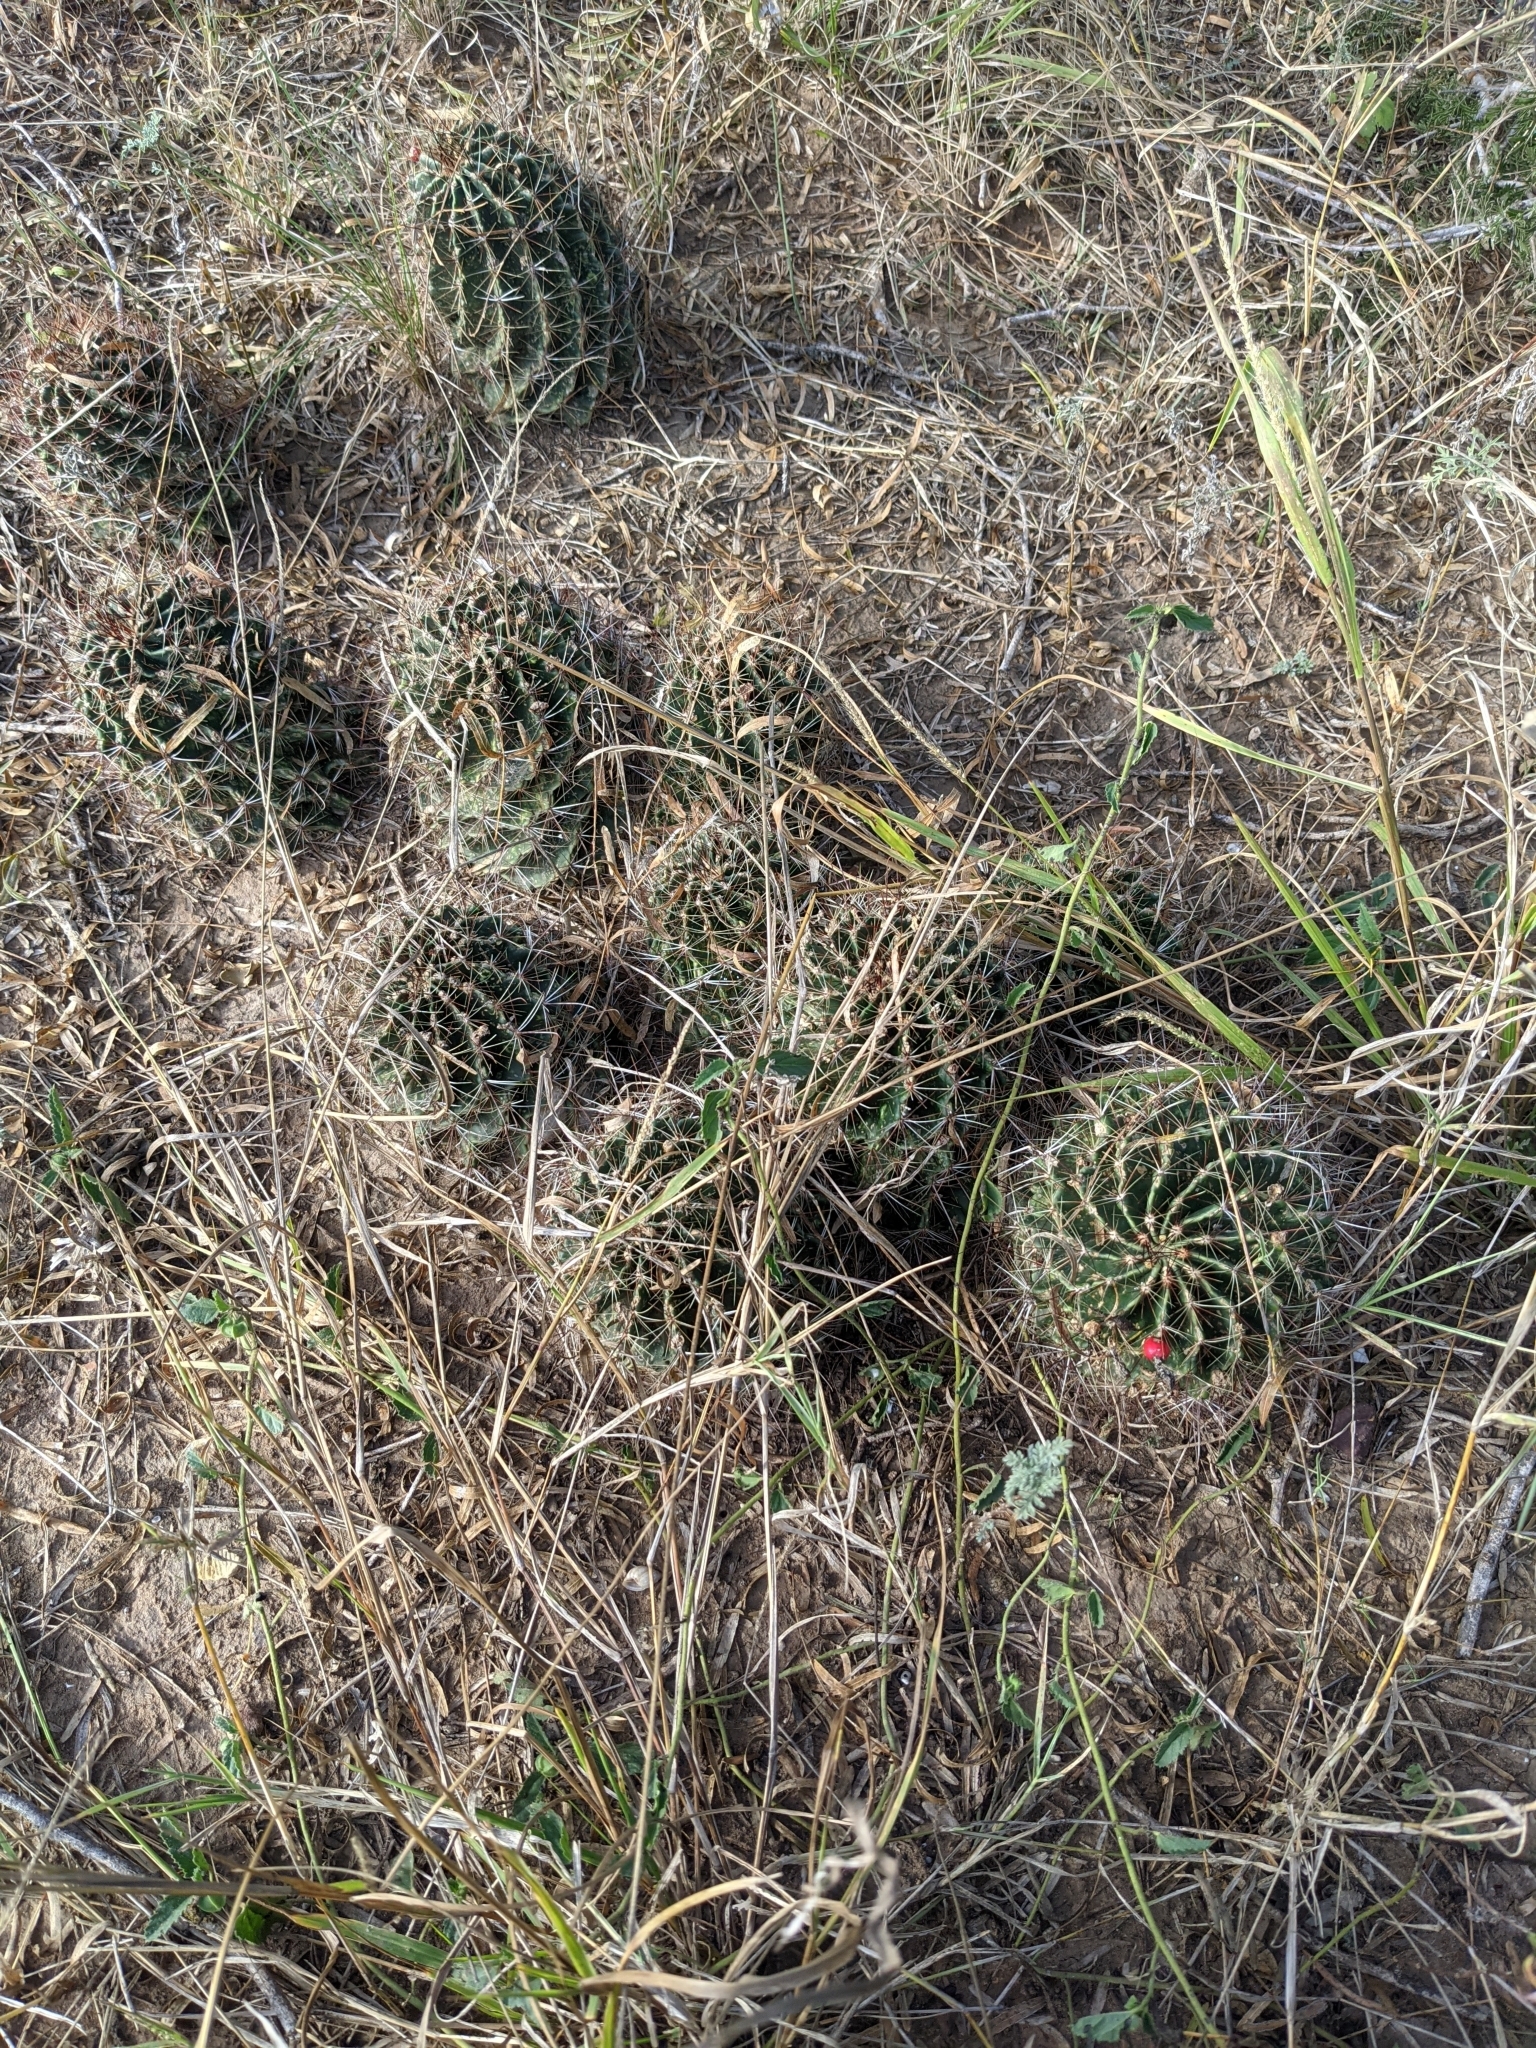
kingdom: Plantae
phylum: Tracheophyta
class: Magnoliopsida
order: Caryophyllales
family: Cactaceae
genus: Thelocactus
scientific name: Thelocactus setispinus
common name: Miniature barrel cactus
